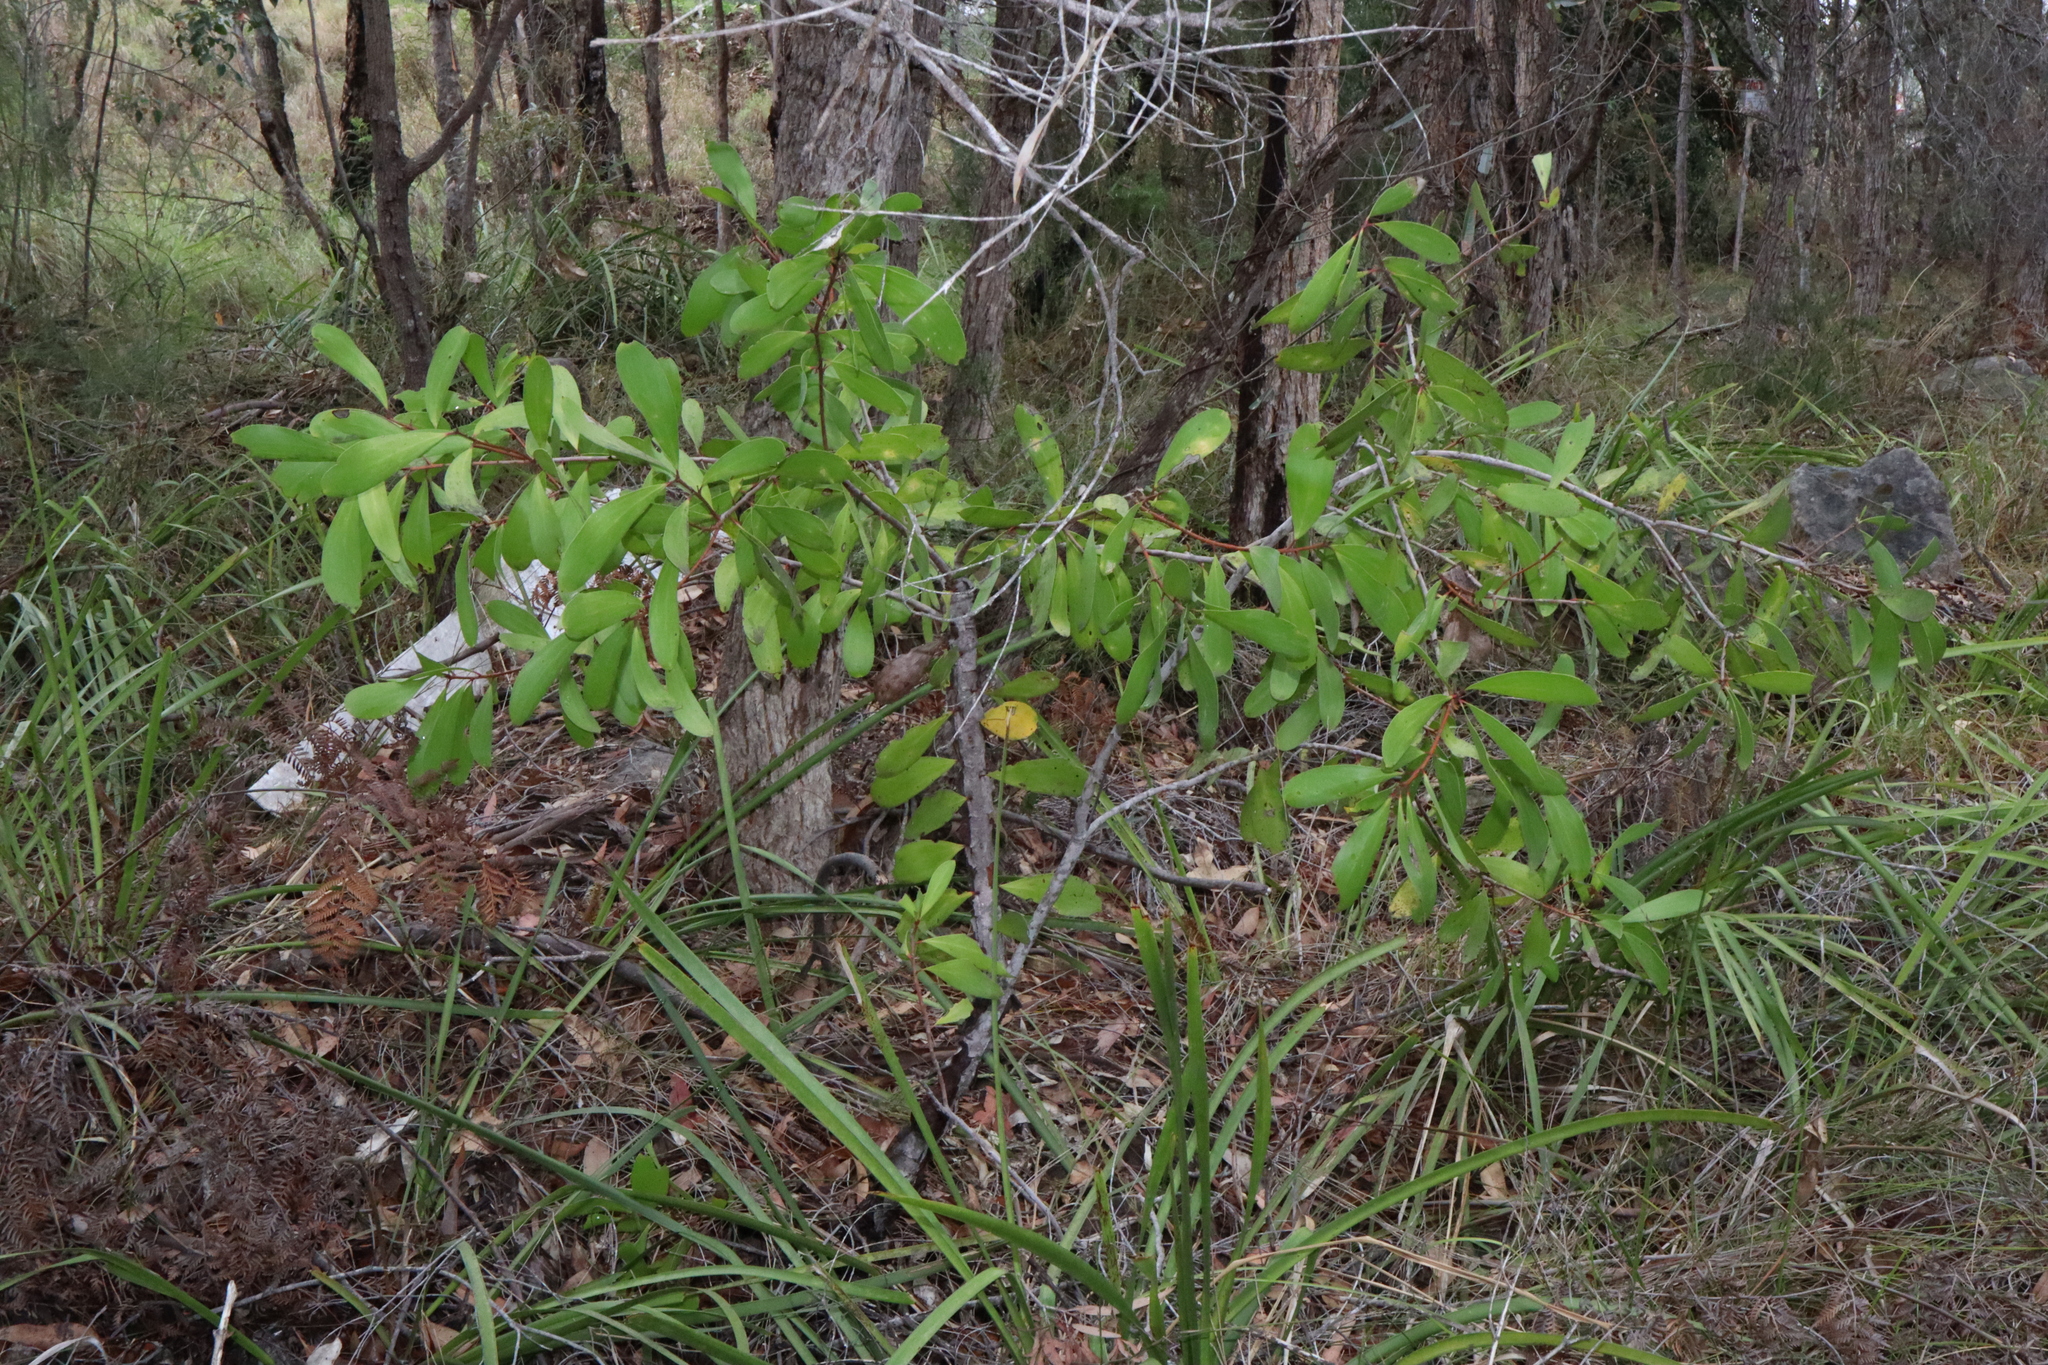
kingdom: Plantae
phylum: Tracheophyta
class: Magnoliopsida
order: Proteales
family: Proteaceae
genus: Persoonia
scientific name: Persoonia levis
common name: Smooth geebung
